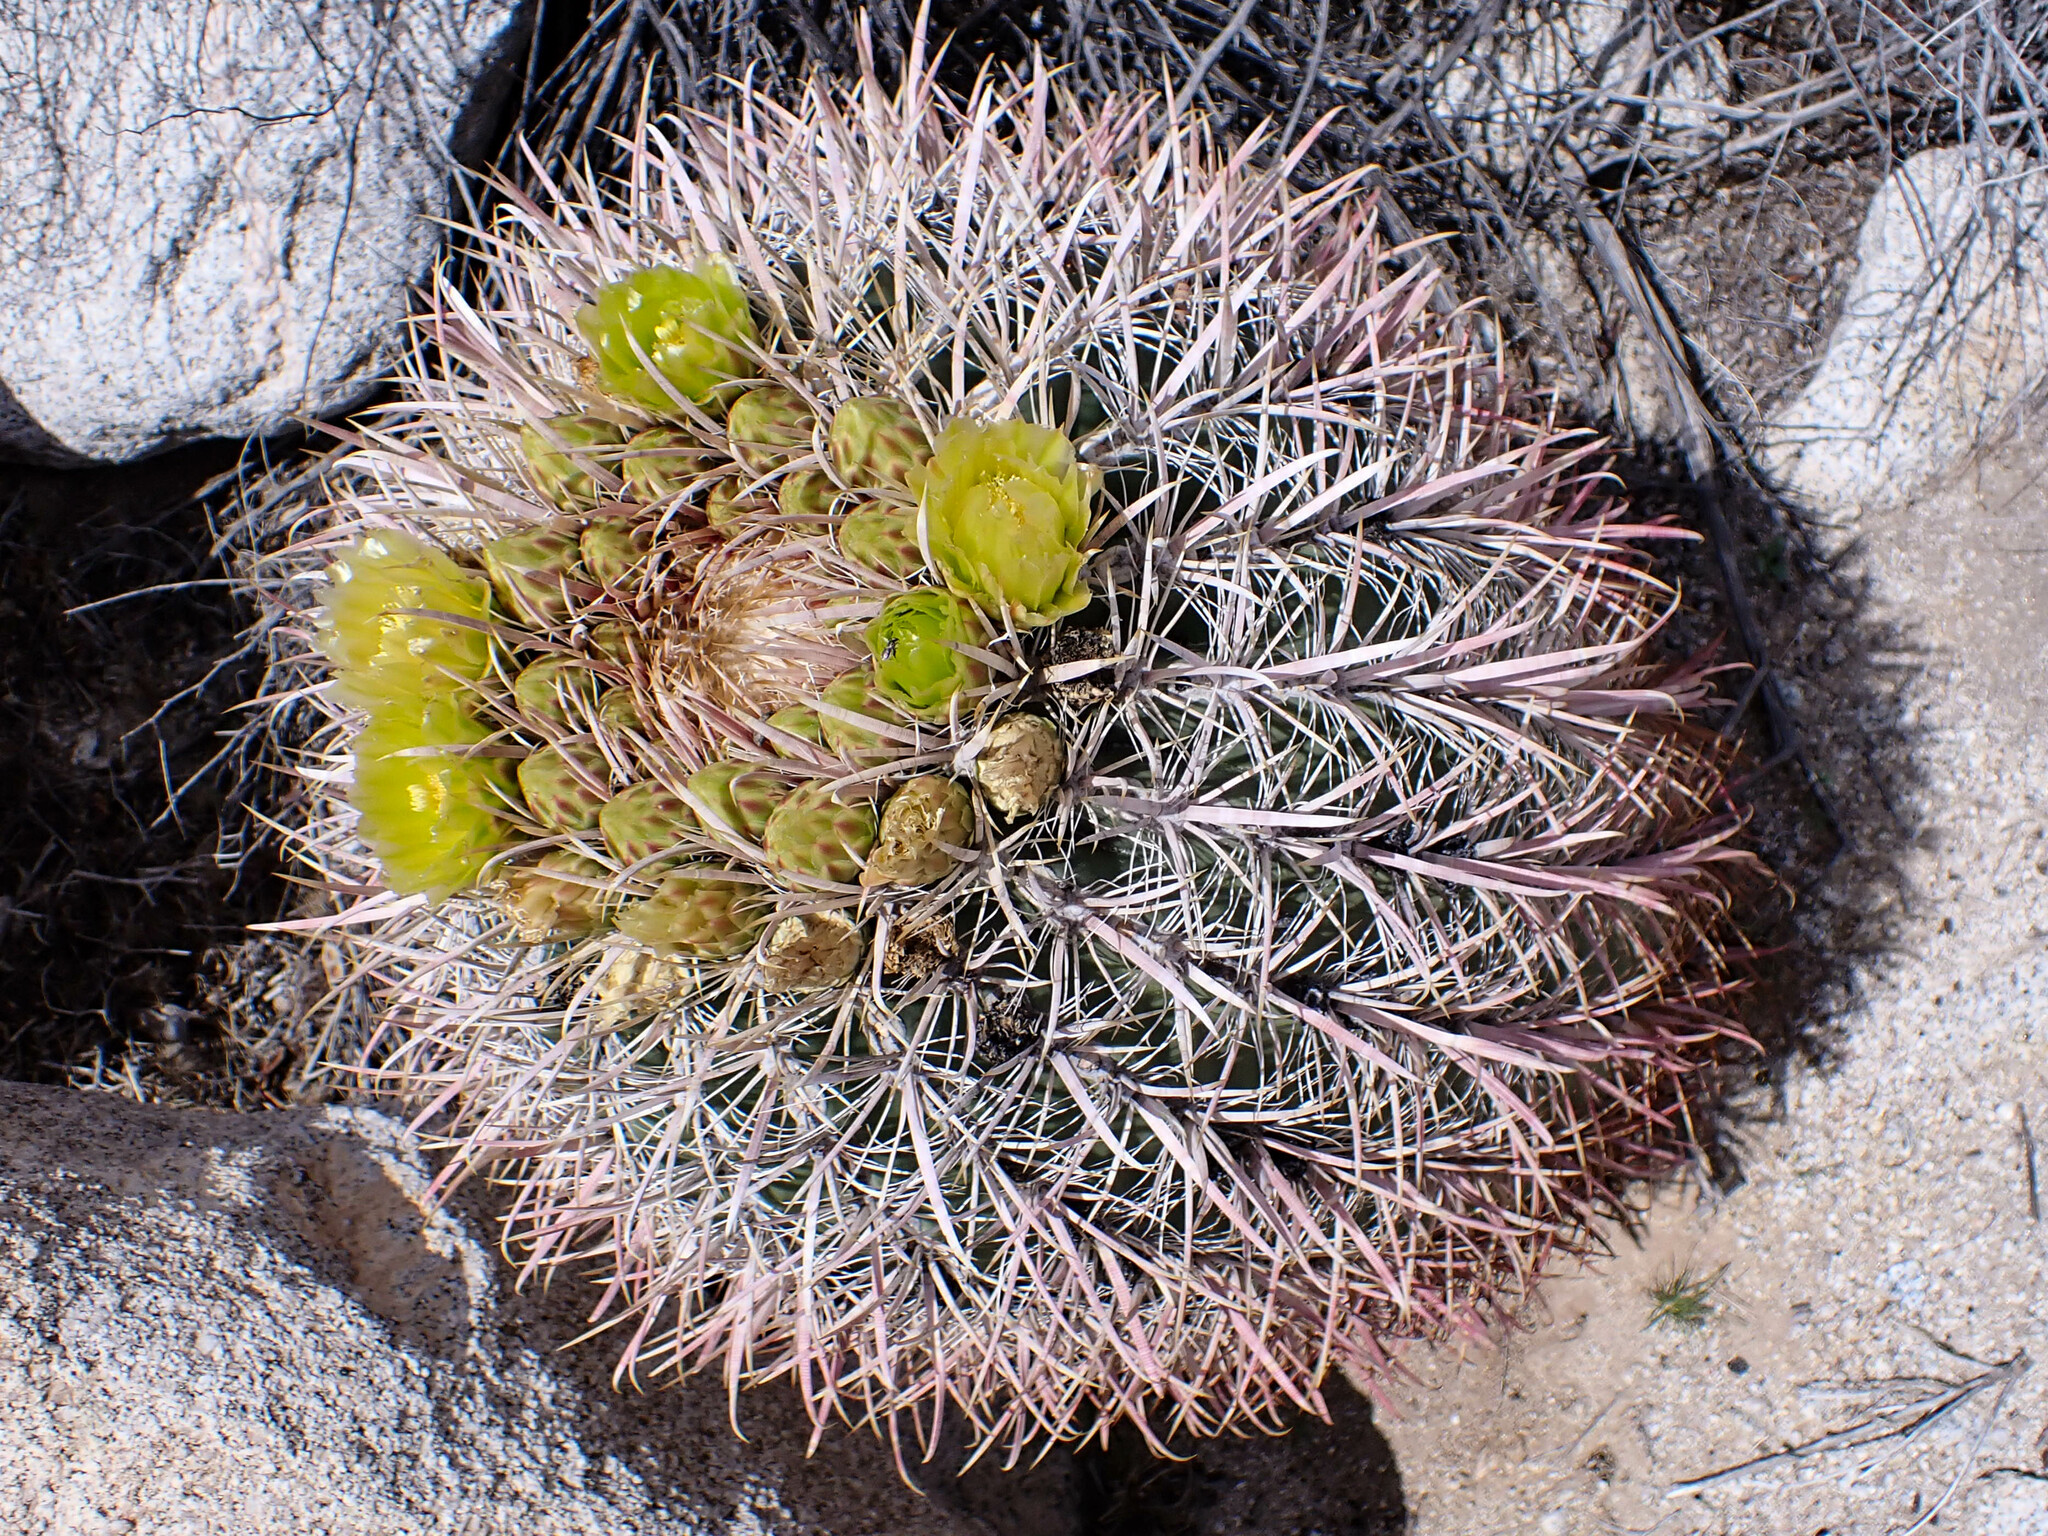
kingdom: Plantae
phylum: Tracheophyta
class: Magnoliopsida
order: Caryophyllales
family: Cactaceae
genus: Ferocactus
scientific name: Ferocactus cylindraceus
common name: California barrel cactus
